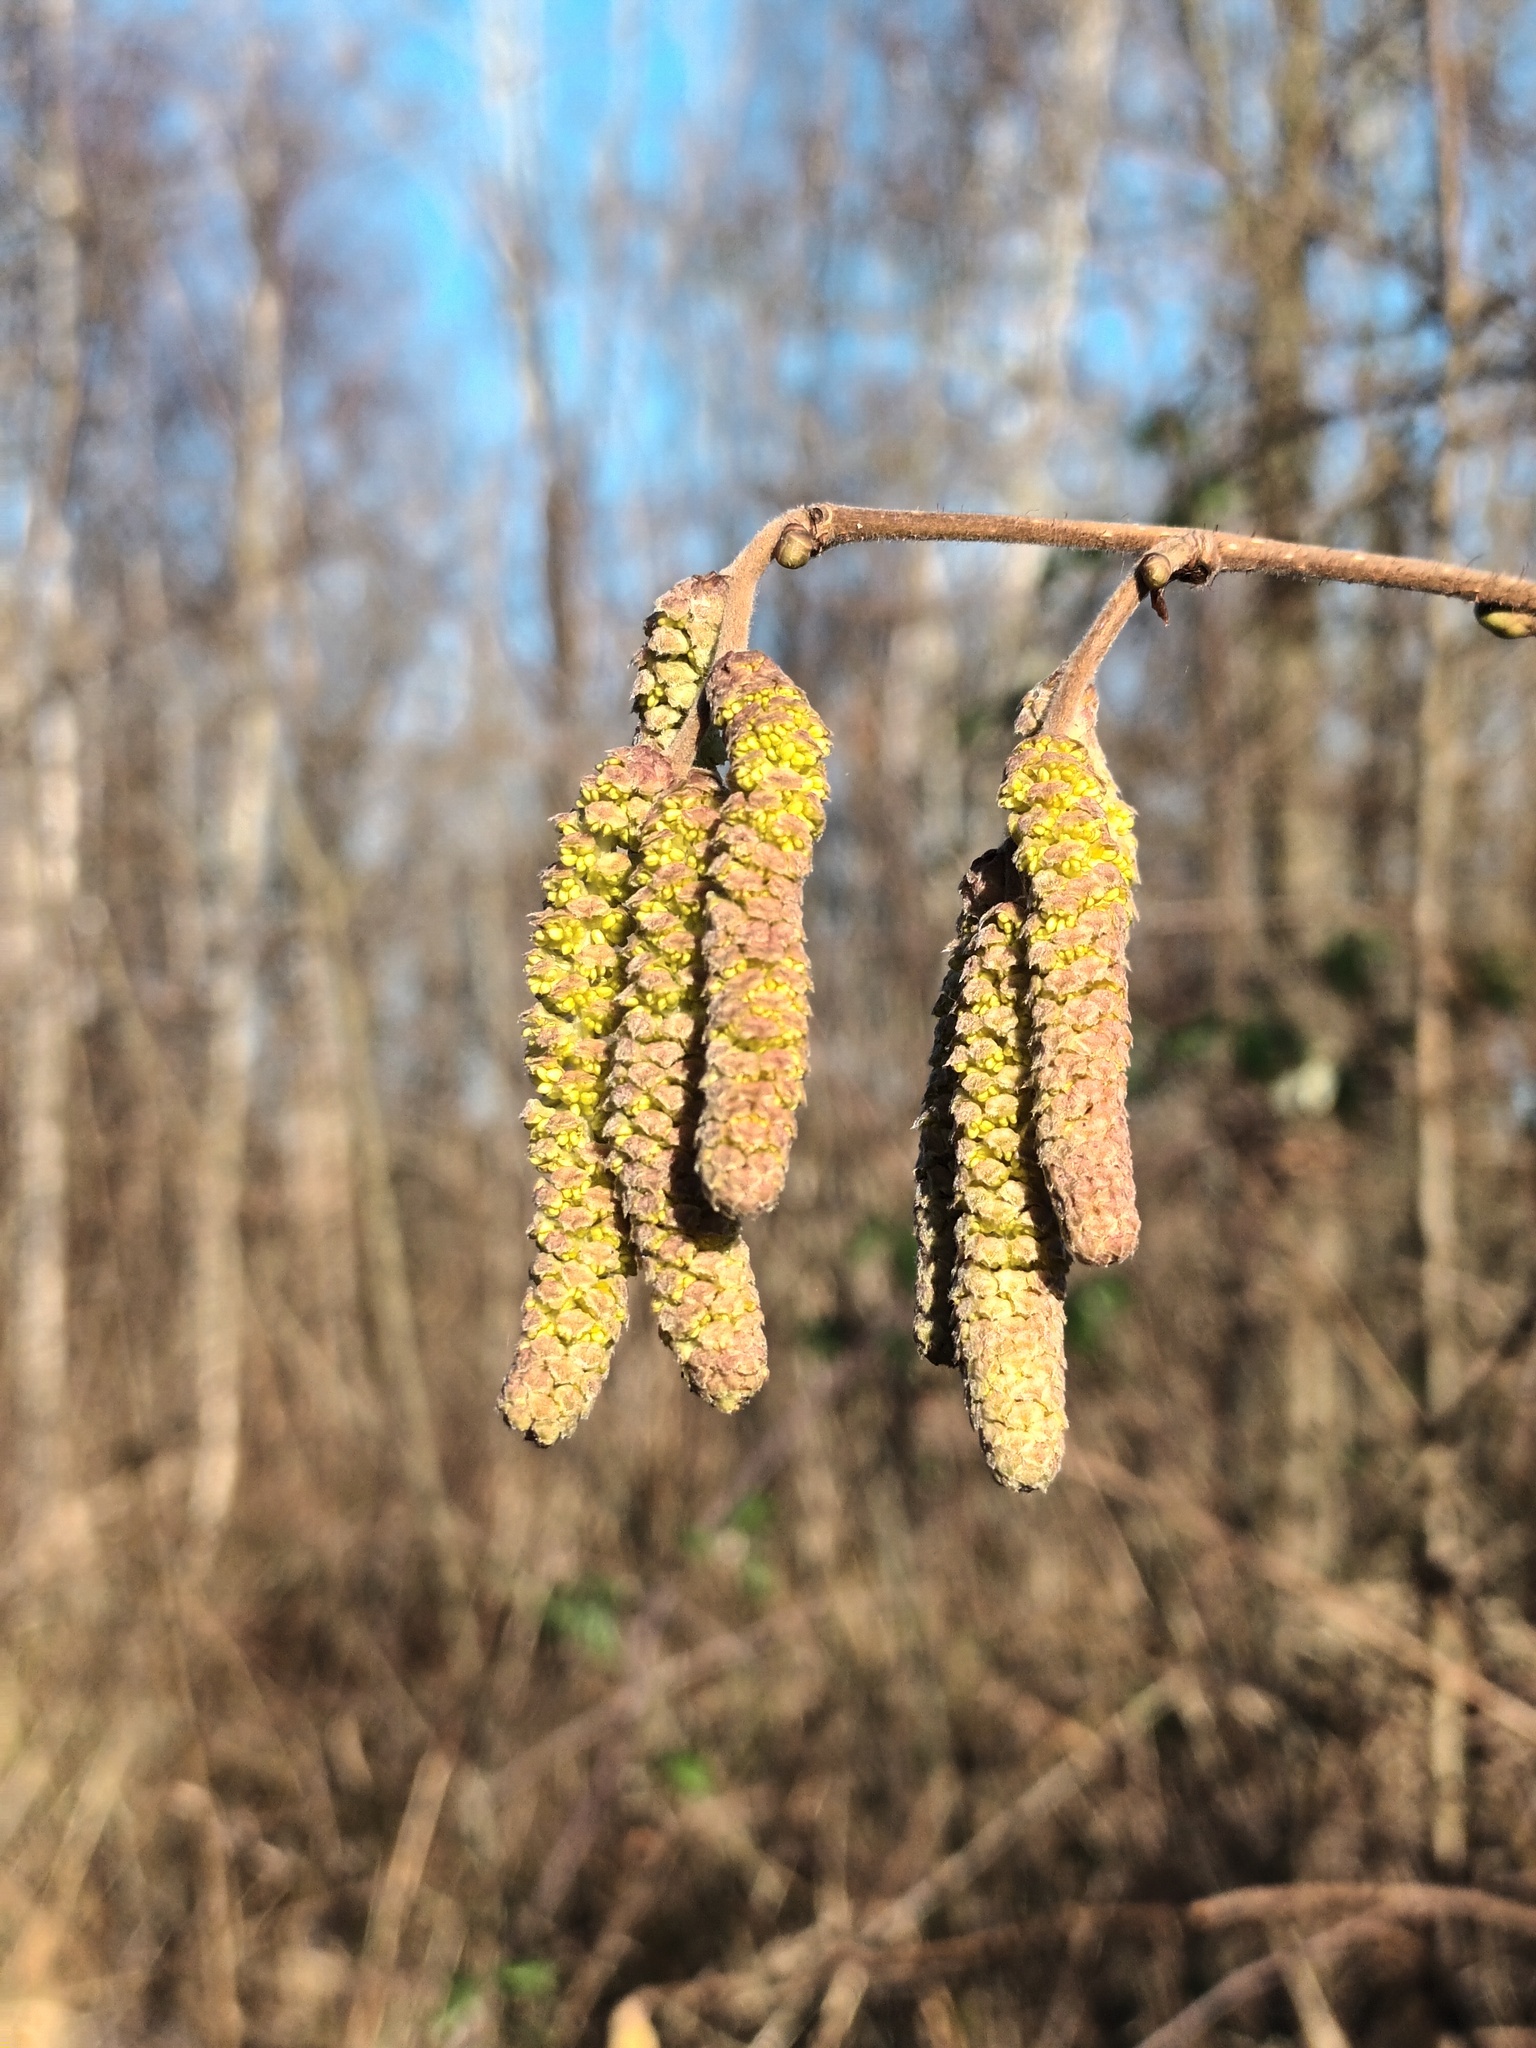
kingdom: Plantae
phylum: Tracheophyta
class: Magnoliopsida
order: Fagales
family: Betulaceae
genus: Corylus
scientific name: Corylus avellana
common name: European hazel
